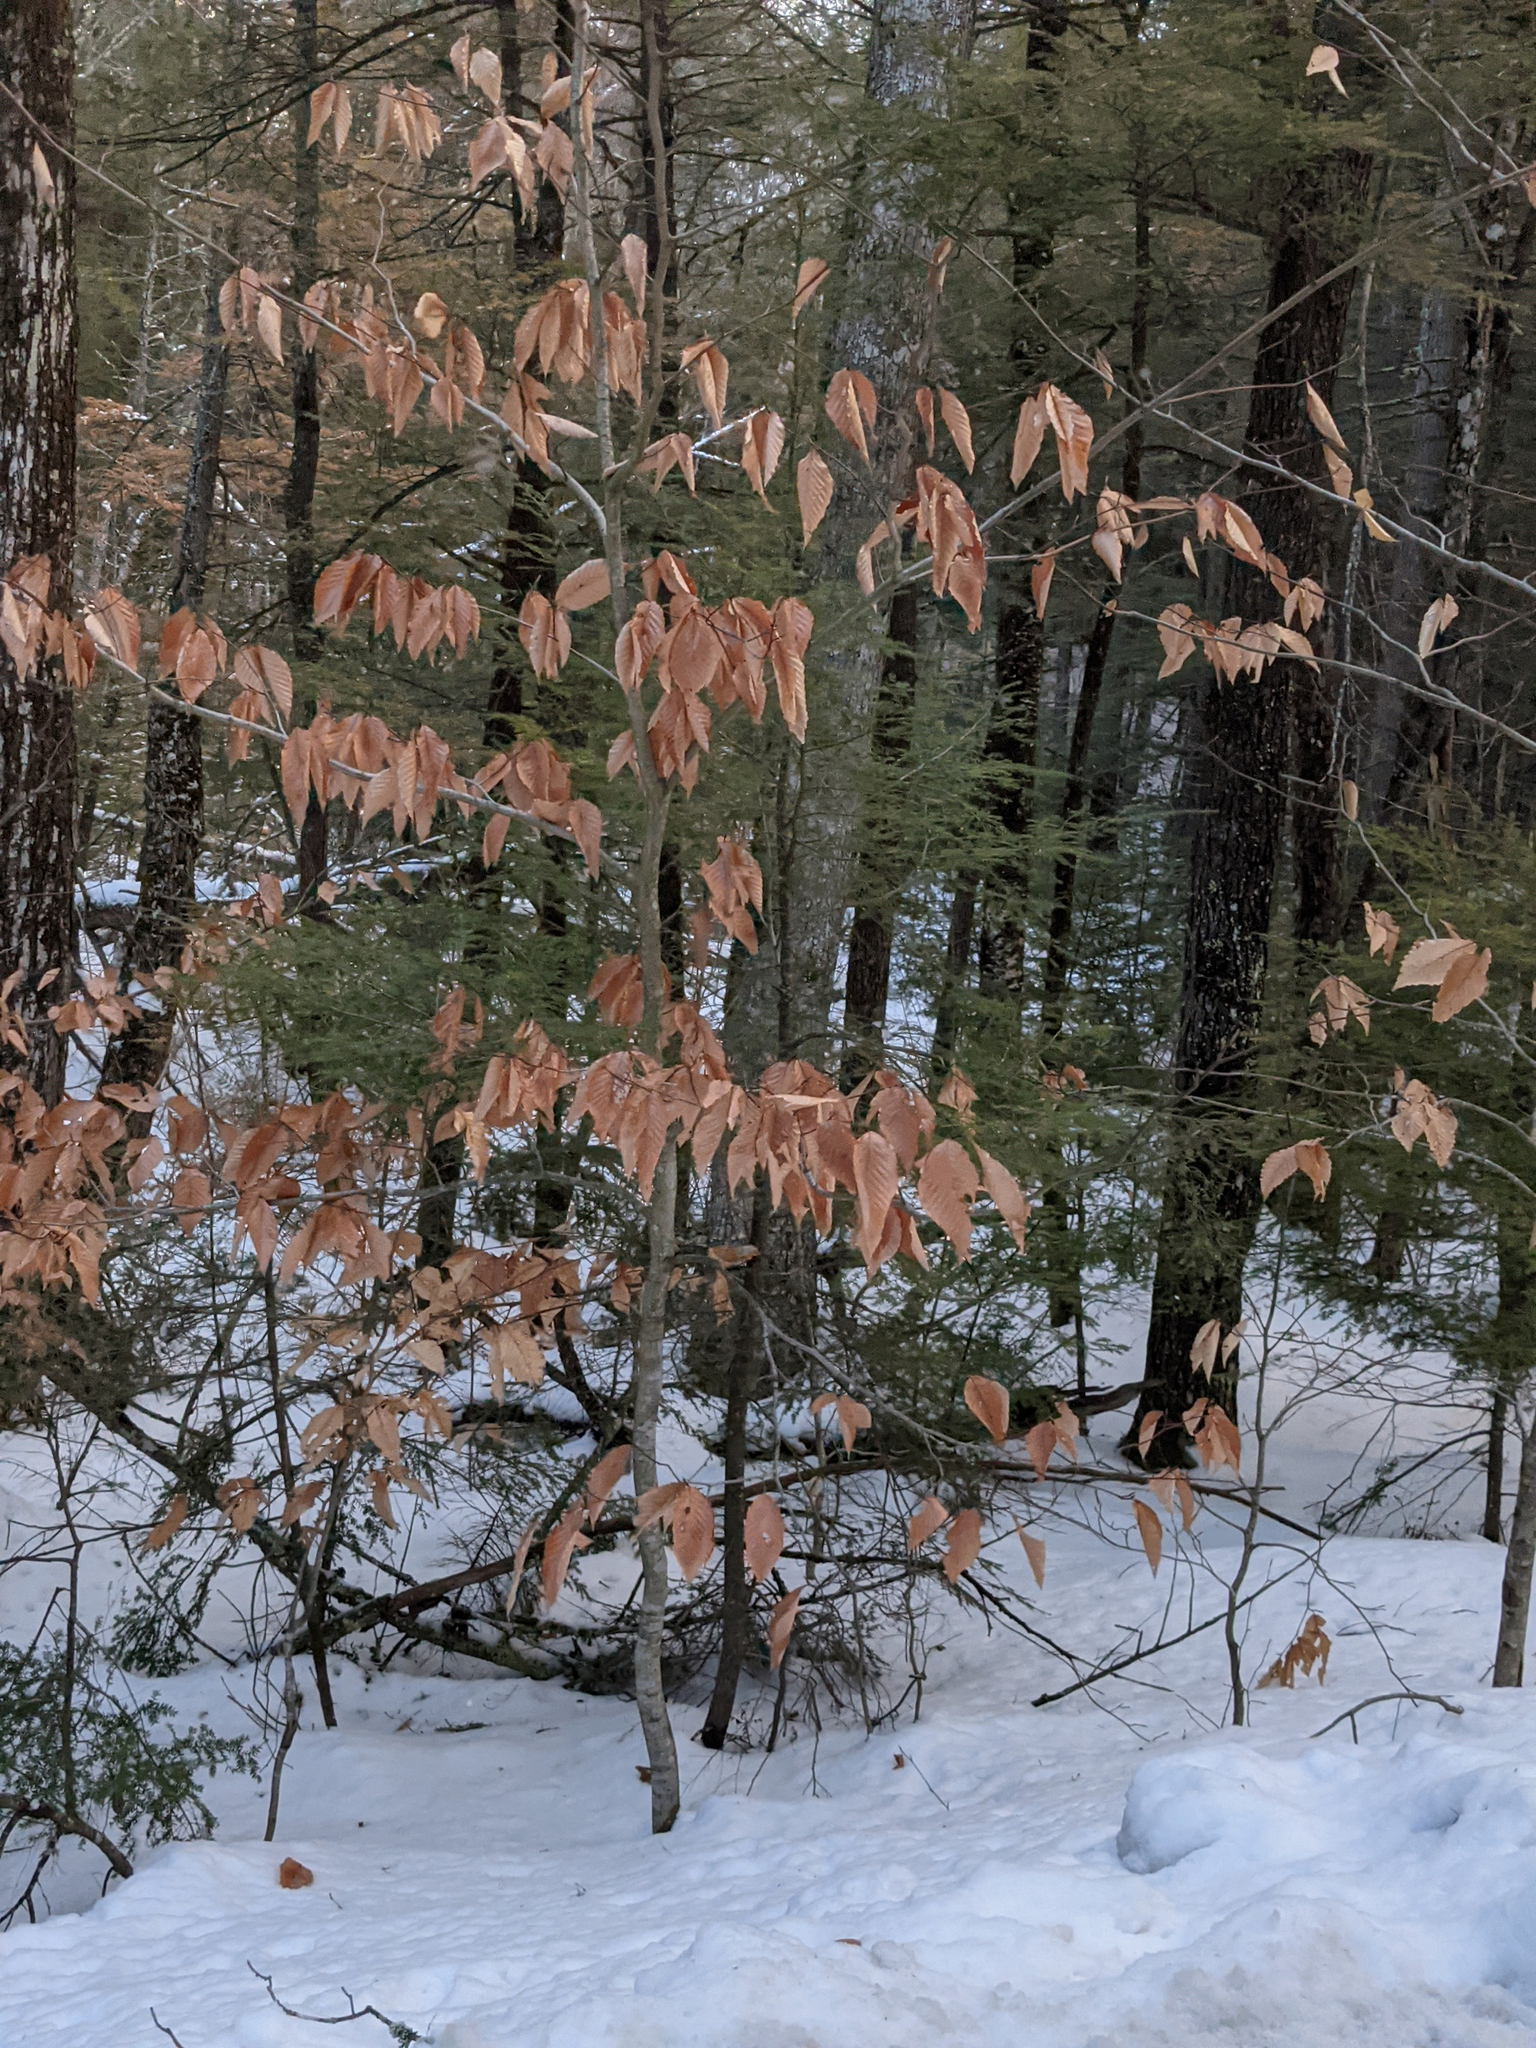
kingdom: Plantae
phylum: Tracheophyta
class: Magnoliopsida
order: Fagales
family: Fagaceae
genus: Fagus
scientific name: Fagus grandifolia
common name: American beech
